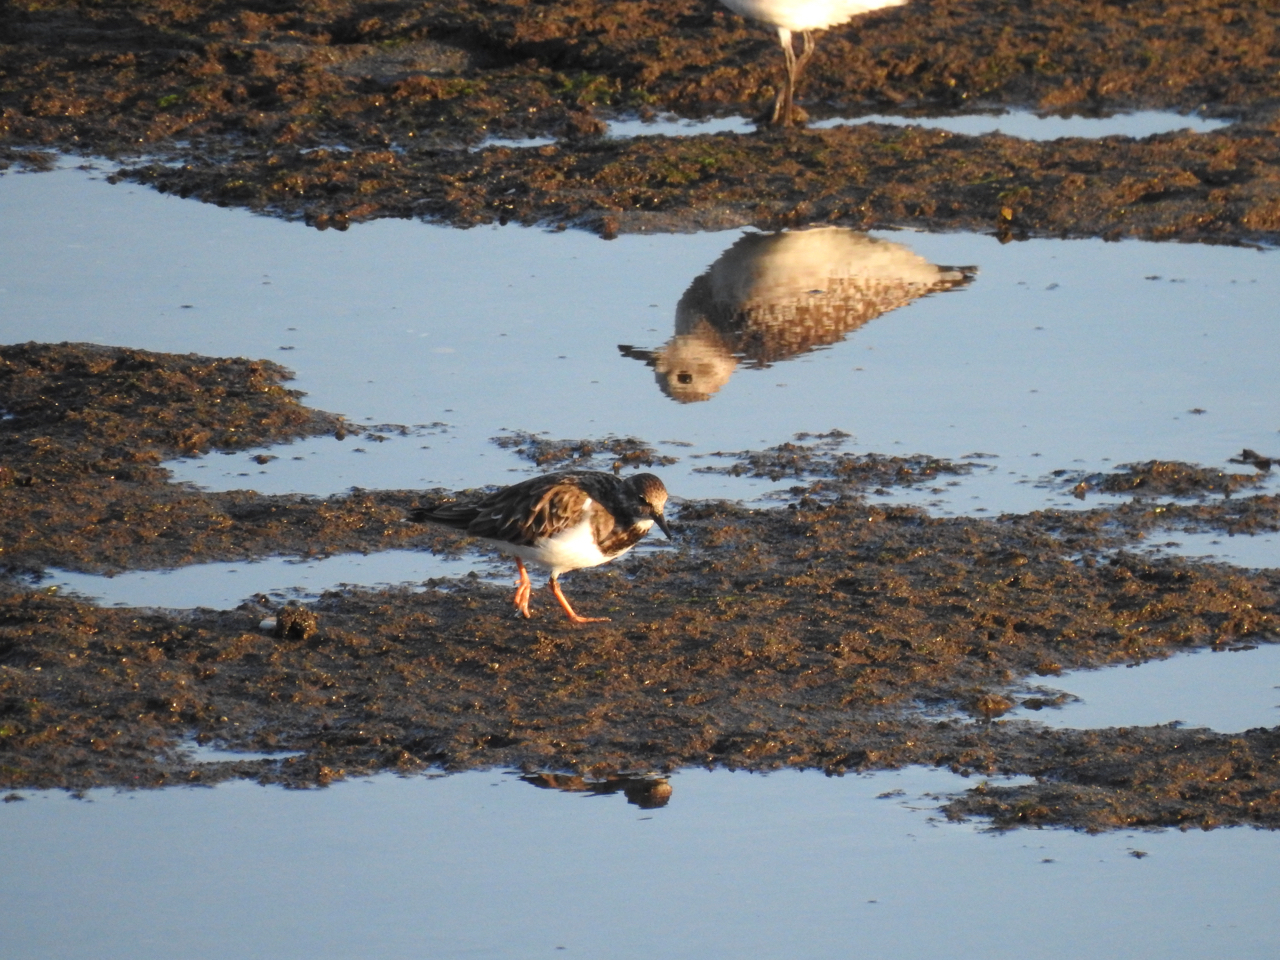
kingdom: Animalia
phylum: Chordata
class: Aves
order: Charadriiformes
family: Scolopacidae
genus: Arenaria
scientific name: Arenaria interpres
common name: Ruddy turnstone
